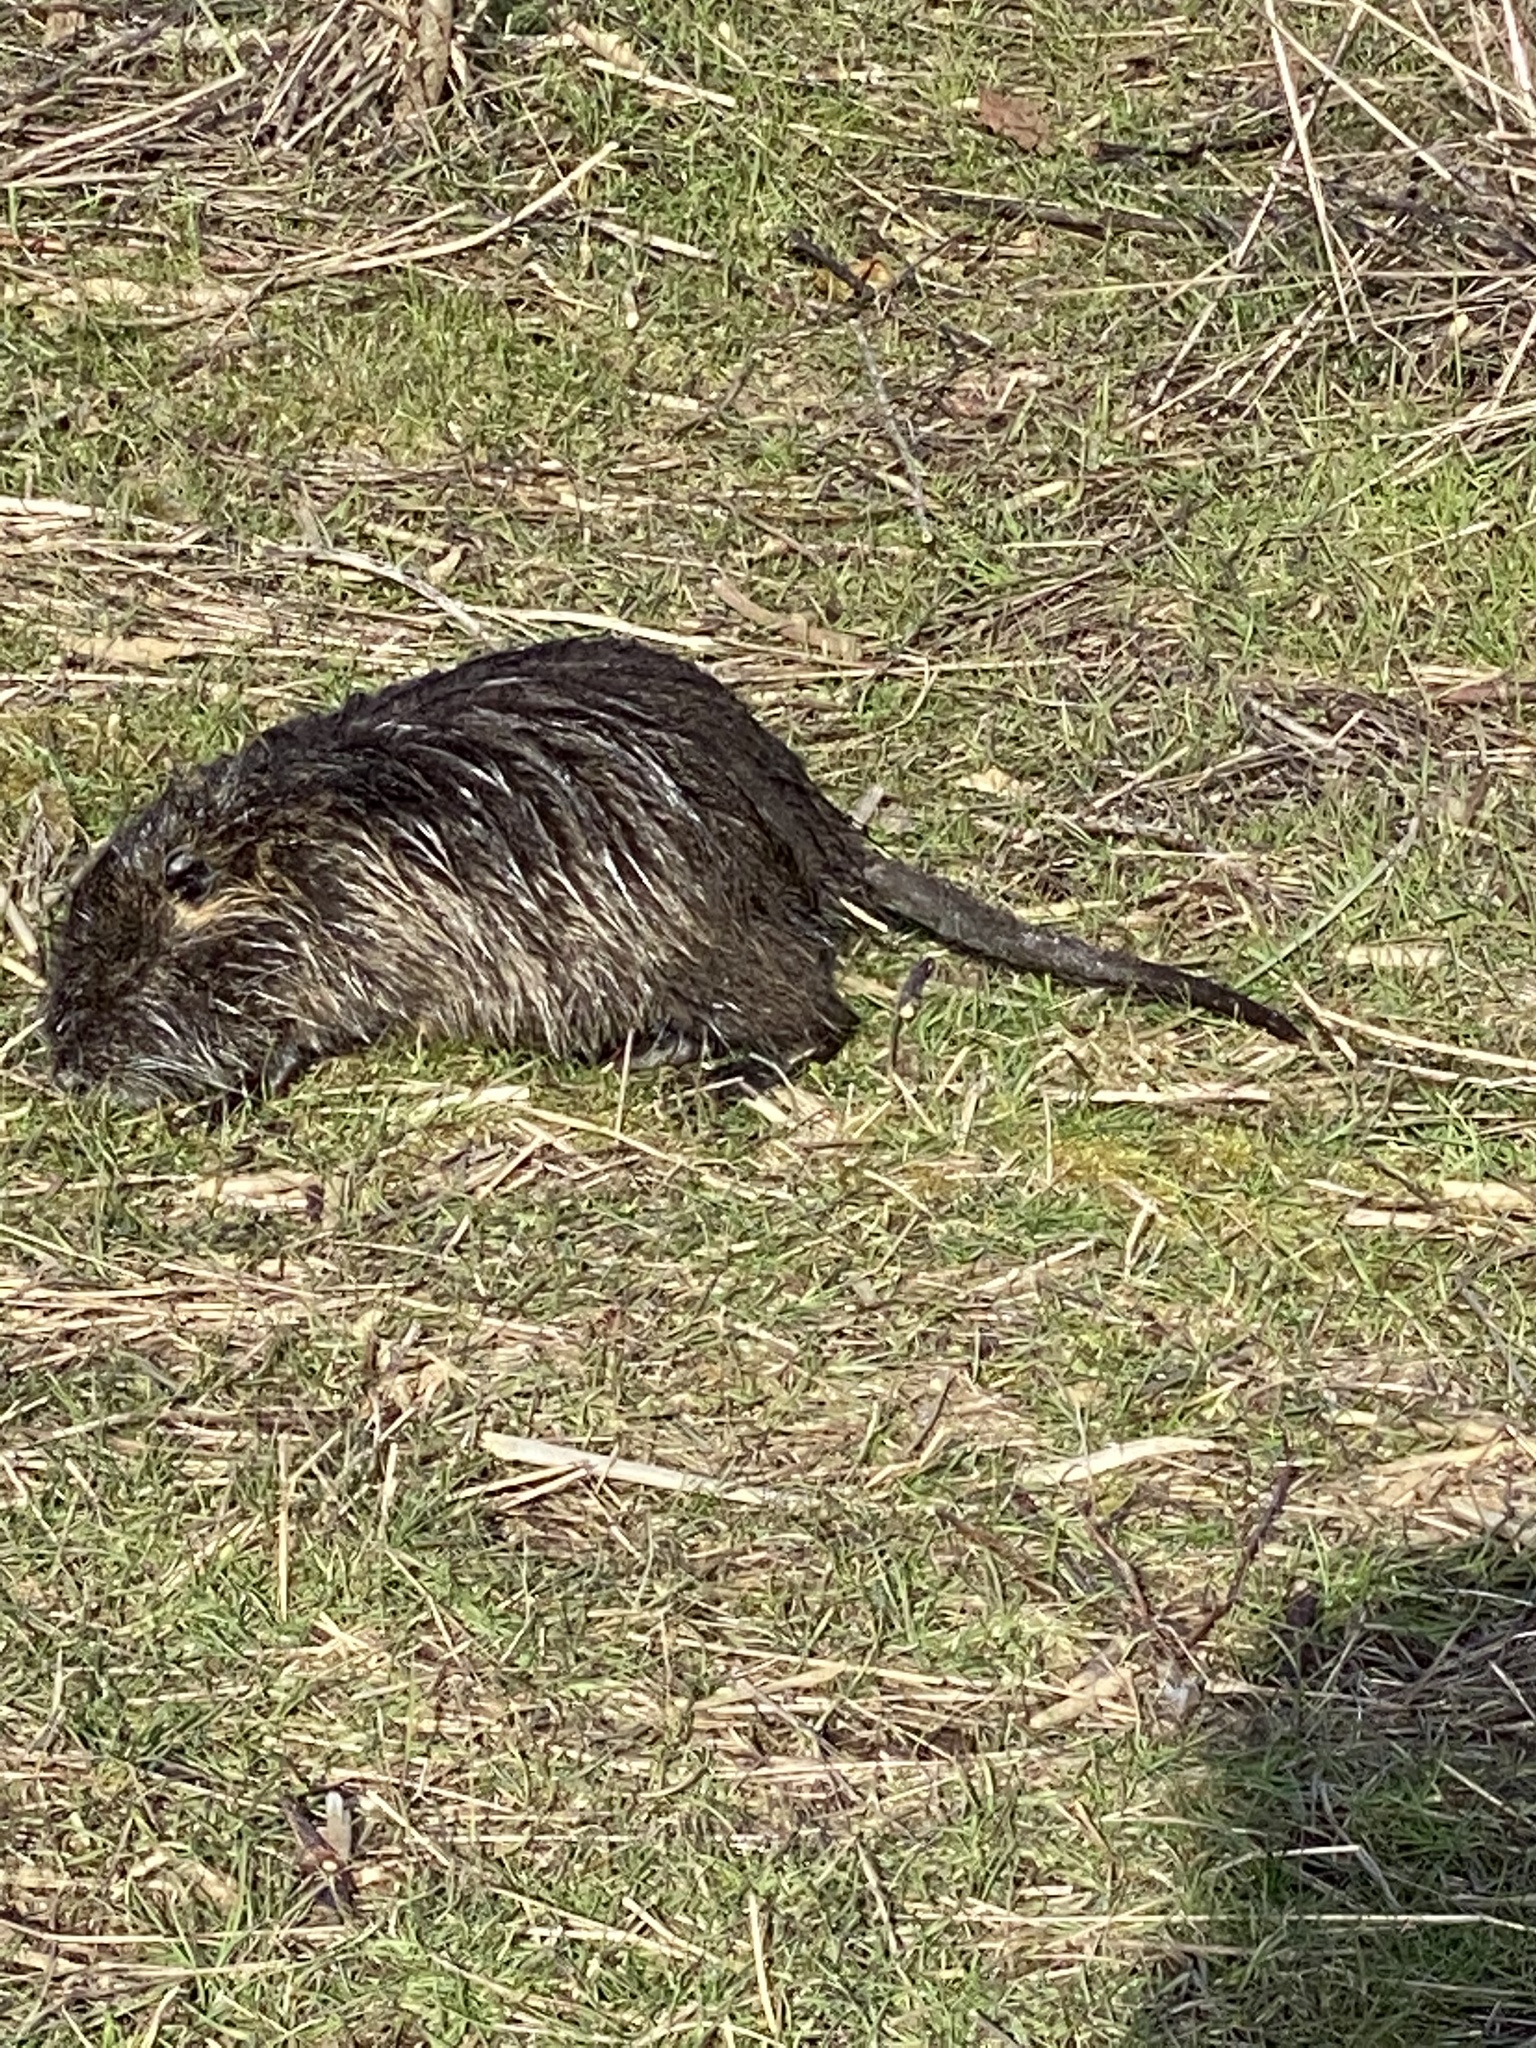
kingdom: Animalia
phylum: Chordata
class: Mammalia
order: Rodentia
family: Myocastoridae
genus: Myocastor
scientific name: Myocastor coypus
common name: Coypu
